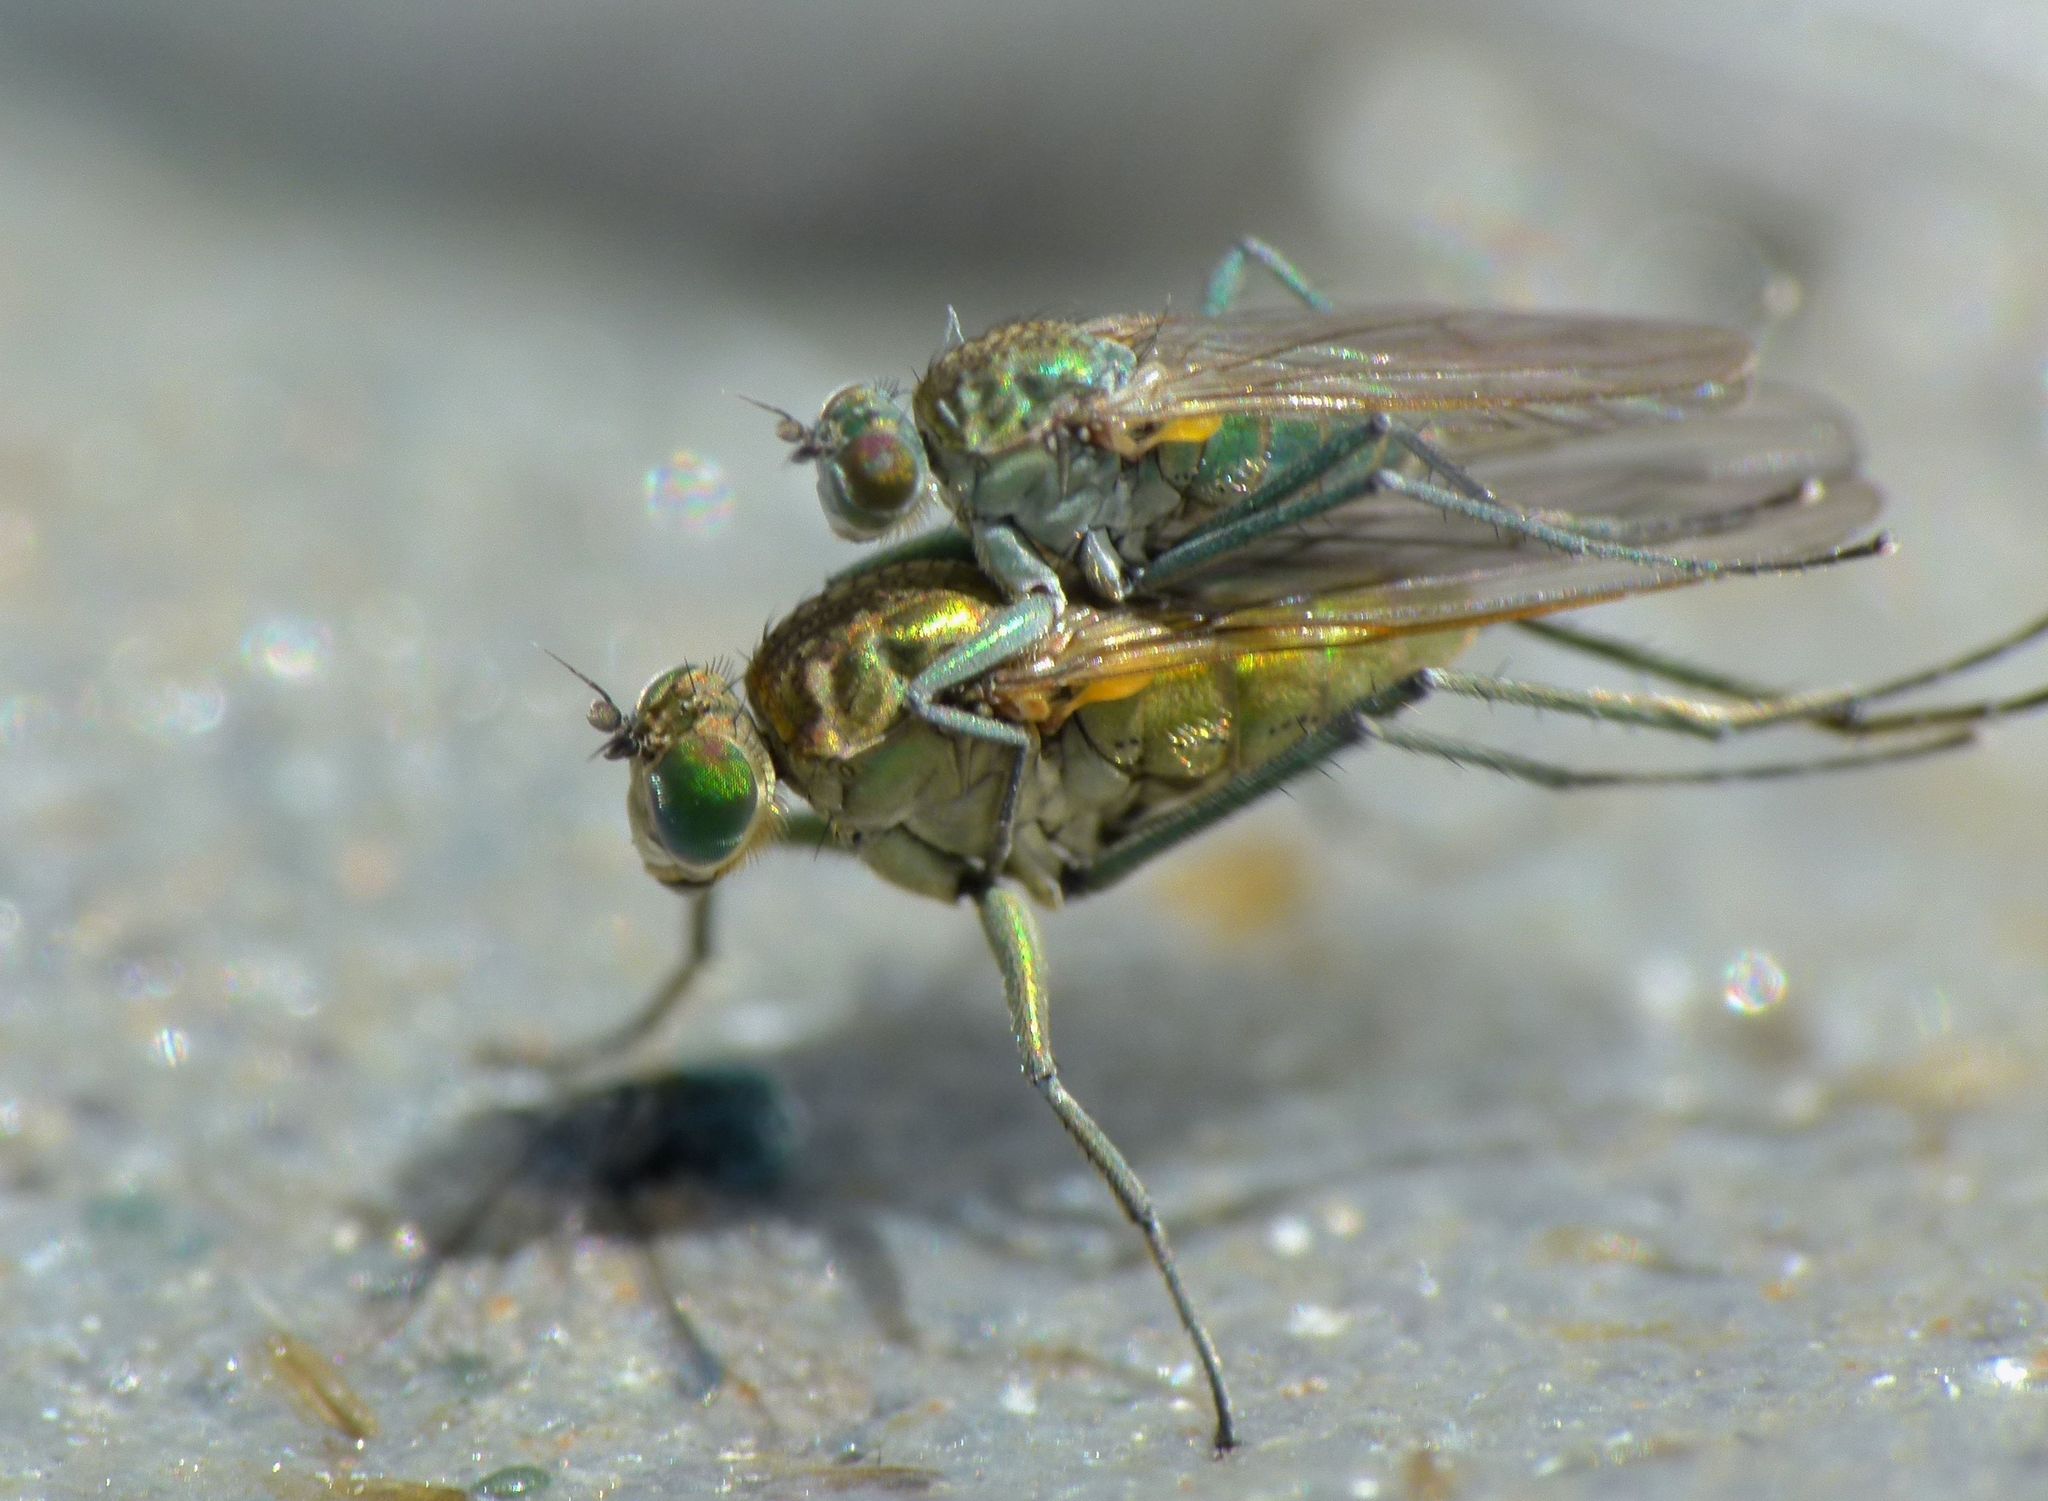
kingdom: Animalia
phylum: Arthropoda
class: Insecta
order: Diptera
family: Dolichopodidae
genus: Hydrophorus
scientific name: Hydrophorus praecox
